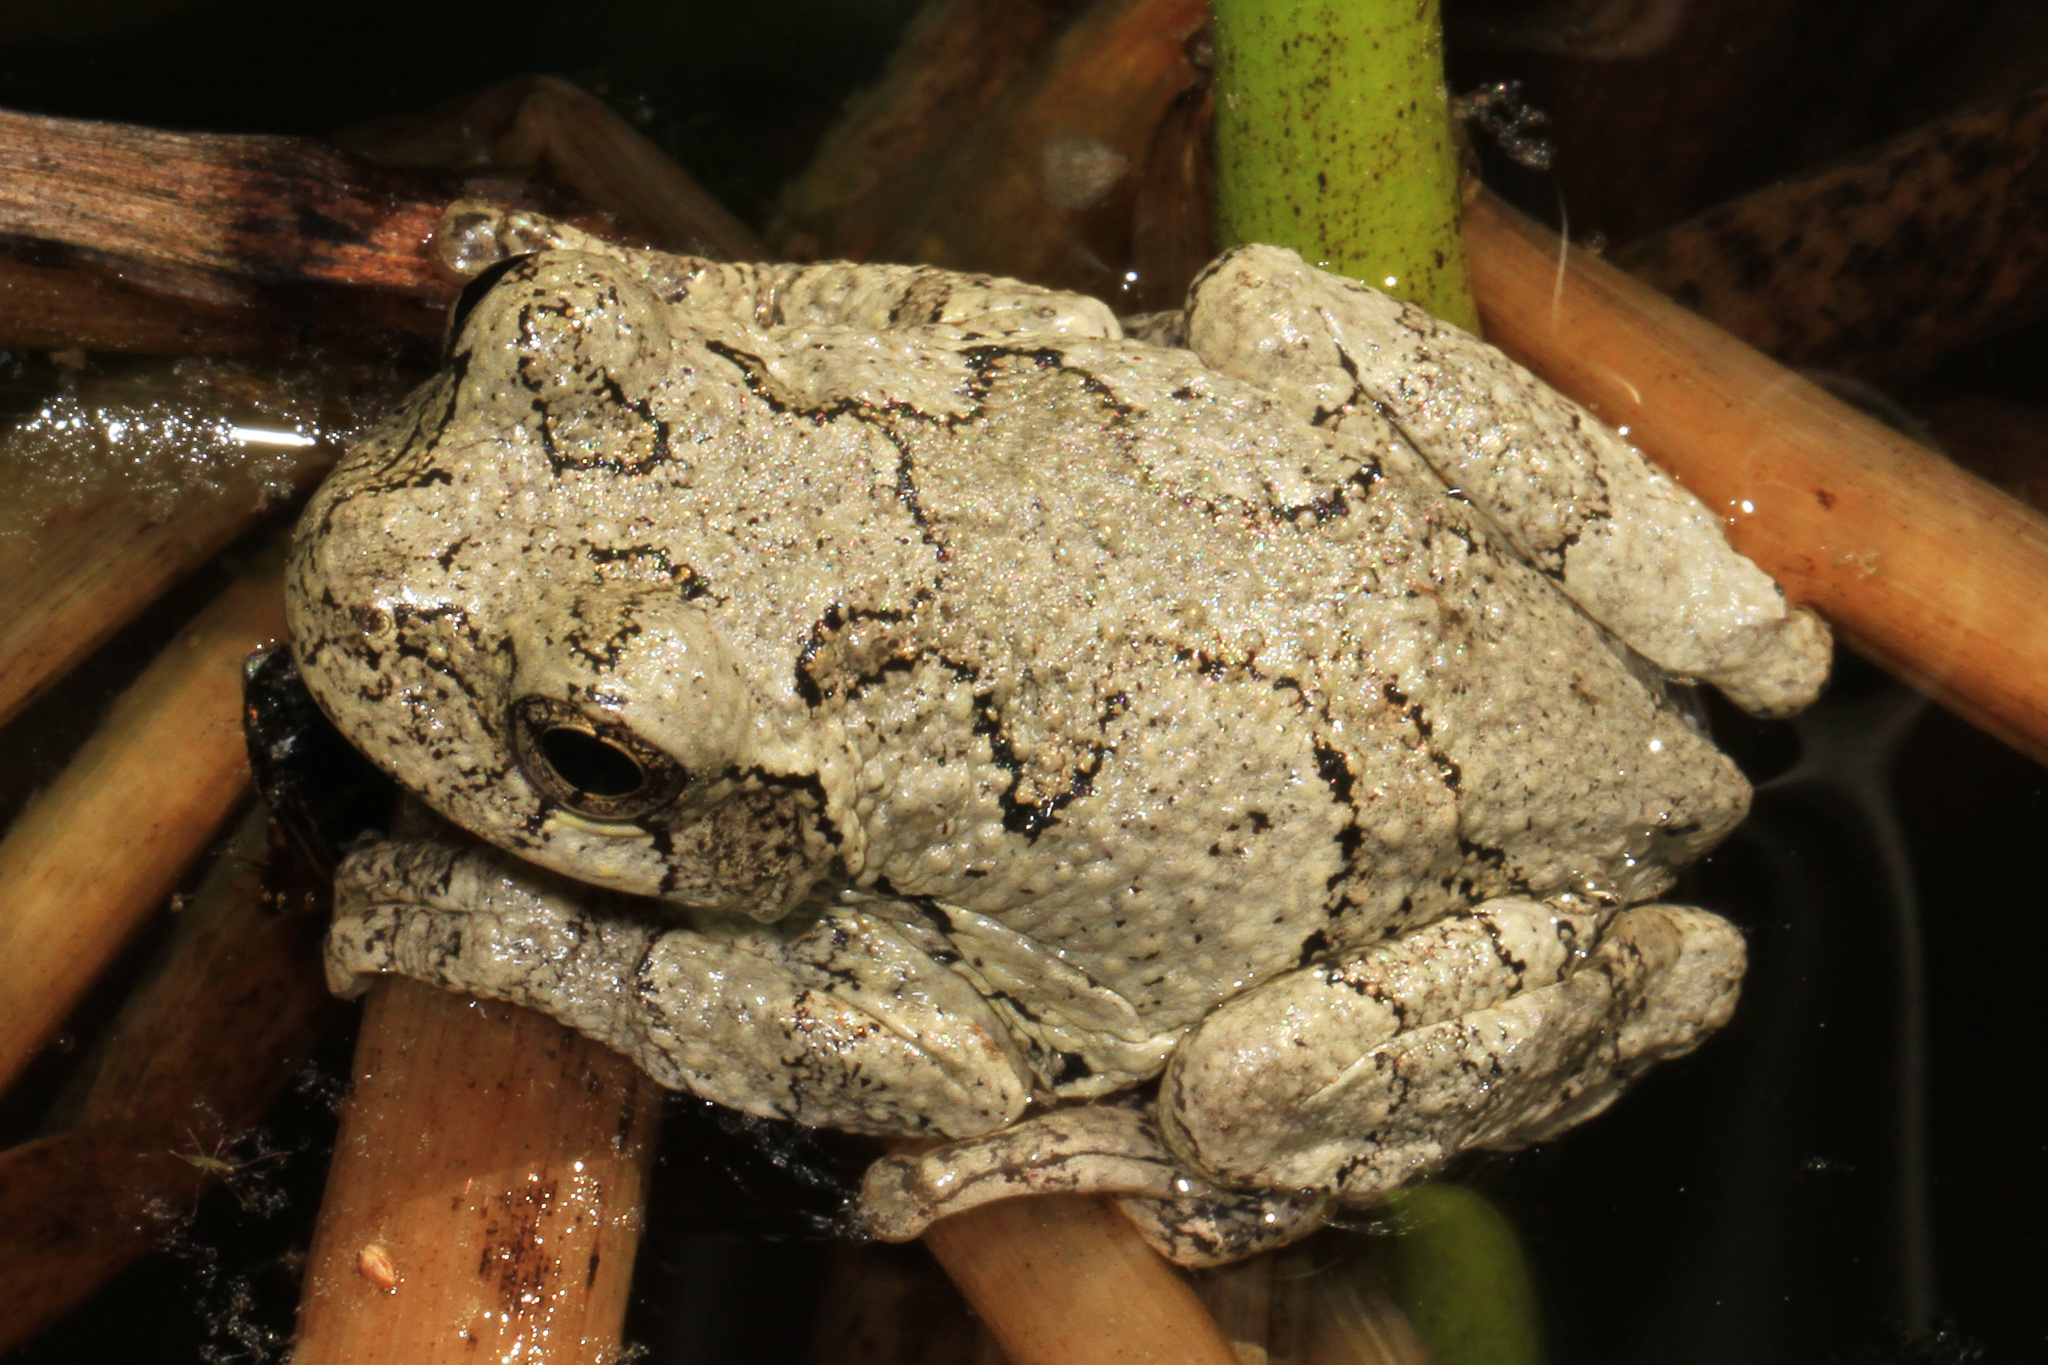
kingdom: Animalia
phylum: Chordata
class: Amphibia
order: Anura
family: Hylidae
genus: Hyla
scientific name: Hyla
